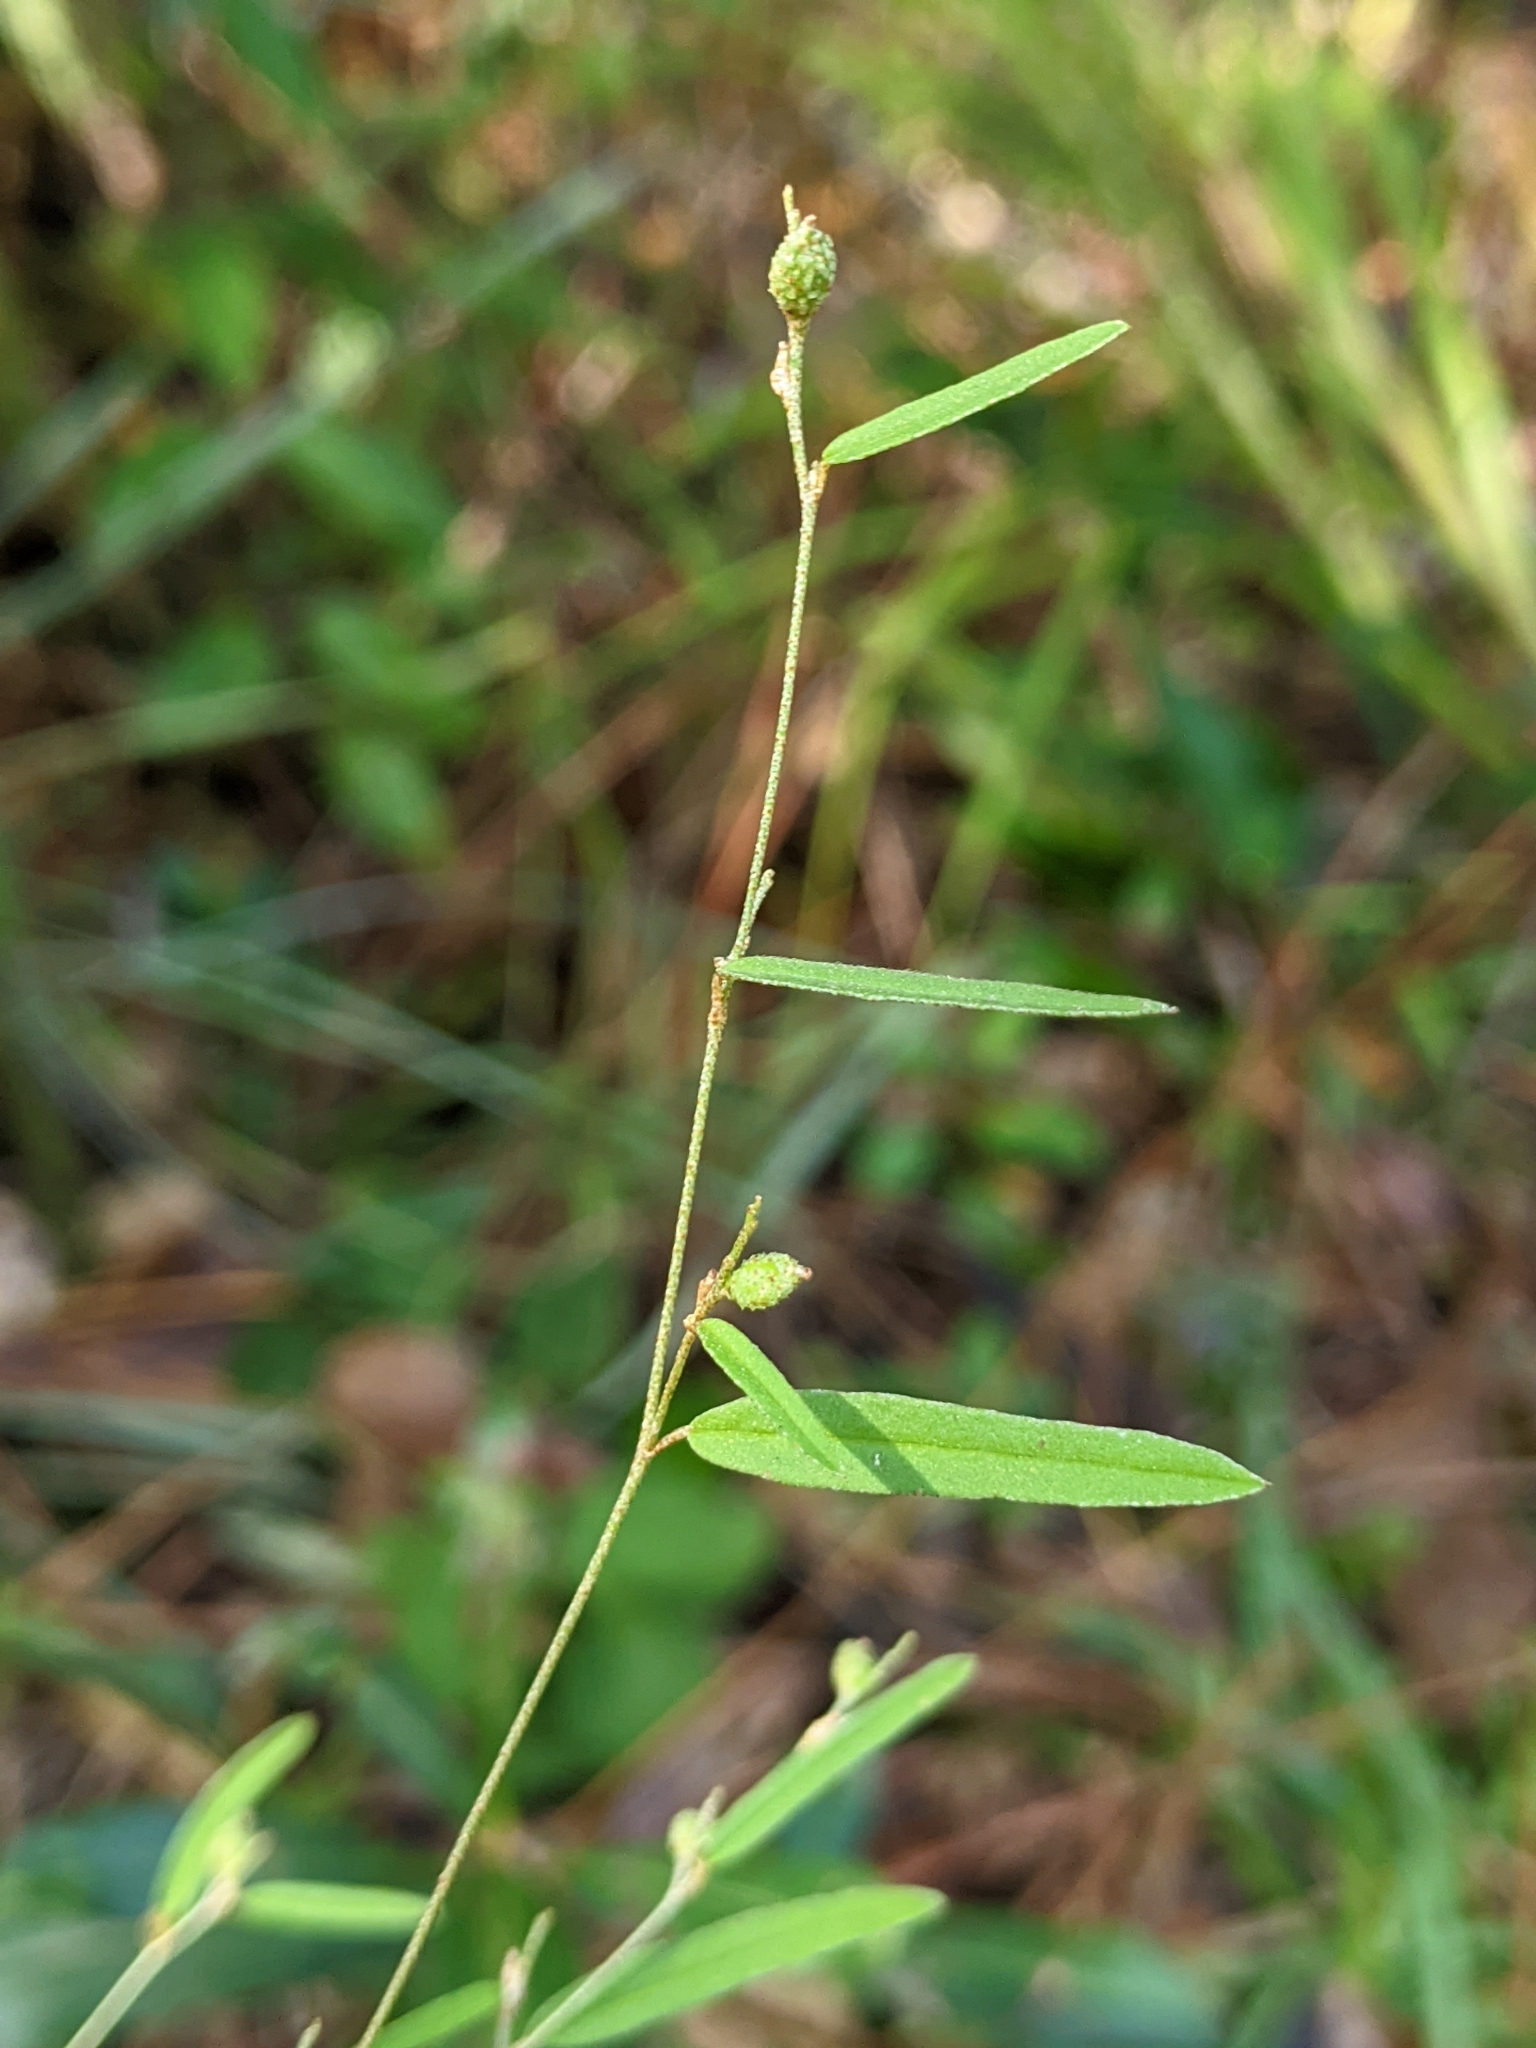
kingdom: Plantae
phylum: Tracheophyta
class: Magnoliopsida
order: Malpighiales
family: Euphorbiaceae
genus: Croton
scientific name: Croton michauxii
